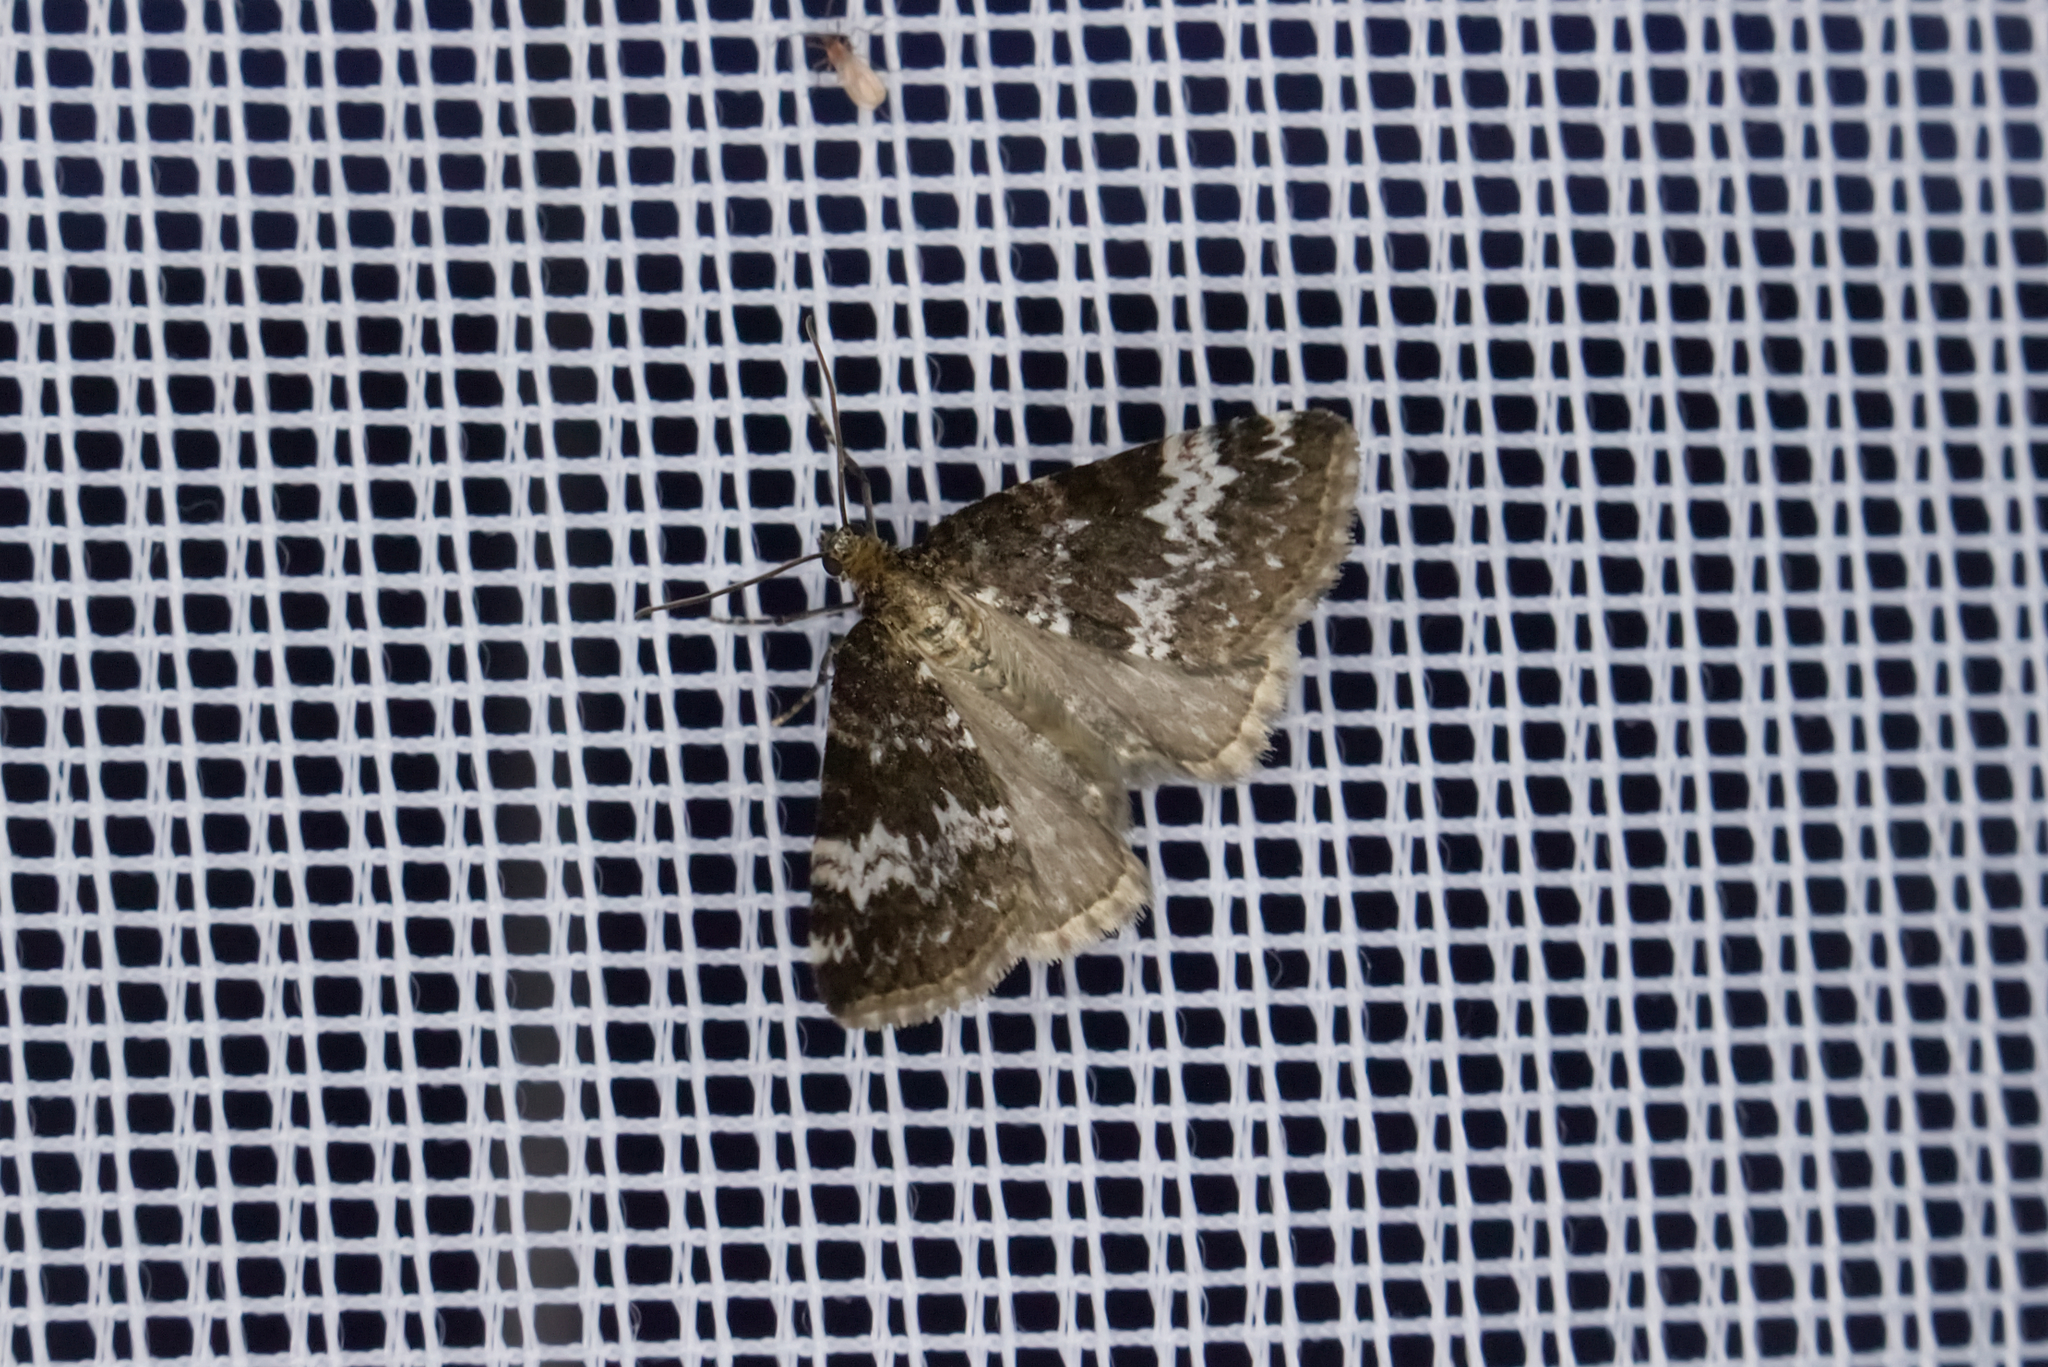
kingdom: Animalia
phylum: Arthropoda
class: Insecta
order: Lepidoptera
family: Geometridae
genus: Perizoma
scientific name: Perizoma alchemillata
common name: Small rivulet
